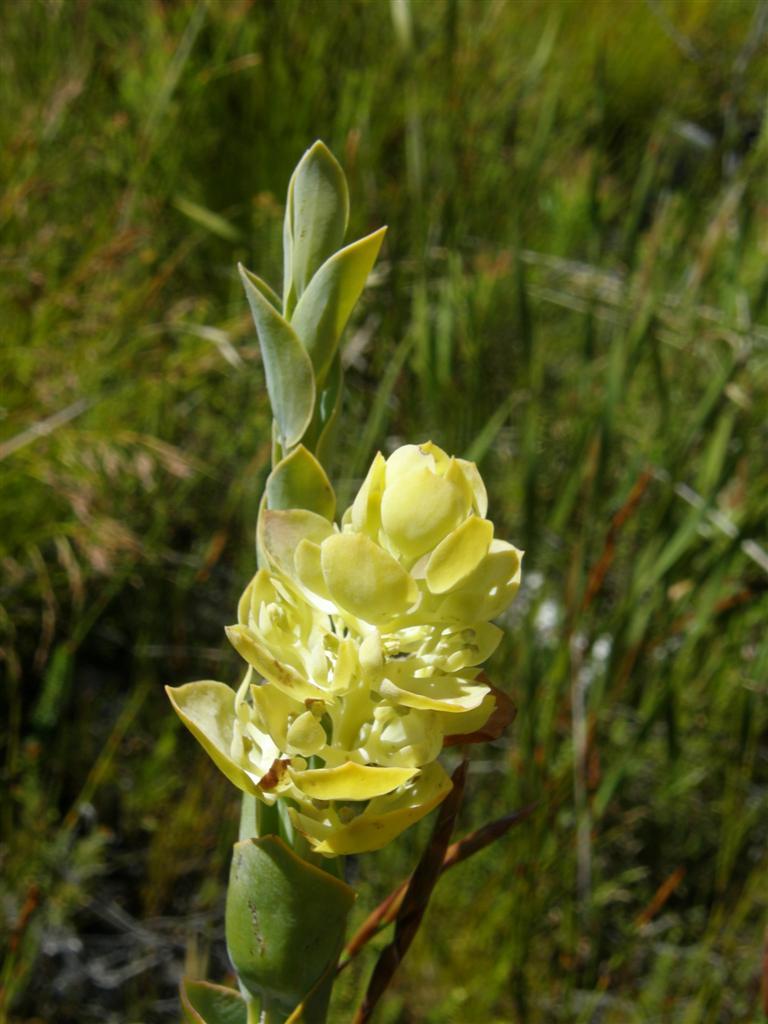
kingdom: Plantae
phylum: Tracheophyta
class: Magnoliopsida
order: Santalales
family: Thesiaceae
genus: Thesium
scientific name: Thesium euphorbioides
